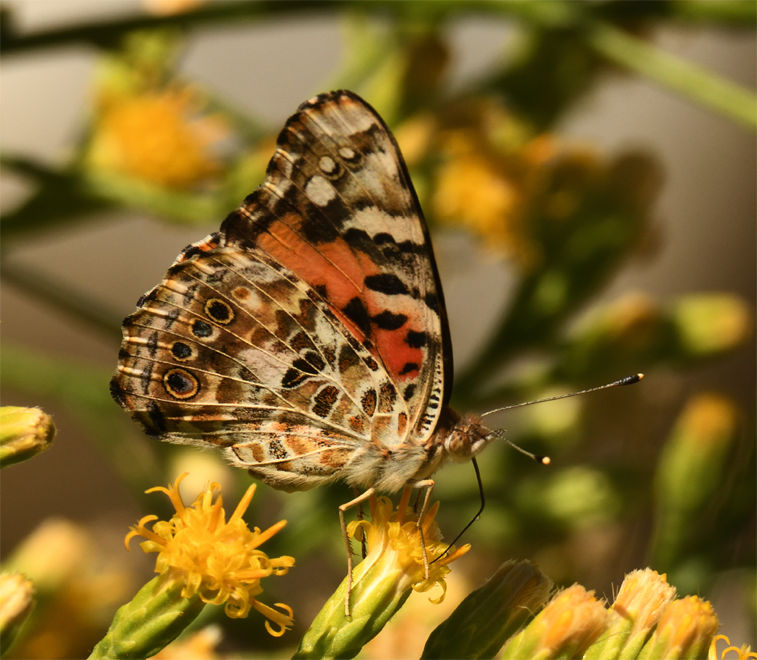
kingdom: Animalia
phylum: Arthropoda
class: Insecta
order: Lepidoptera
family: Nymphalidae
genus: Vanessa
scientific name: Vanessa cardui
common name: Painted lady
